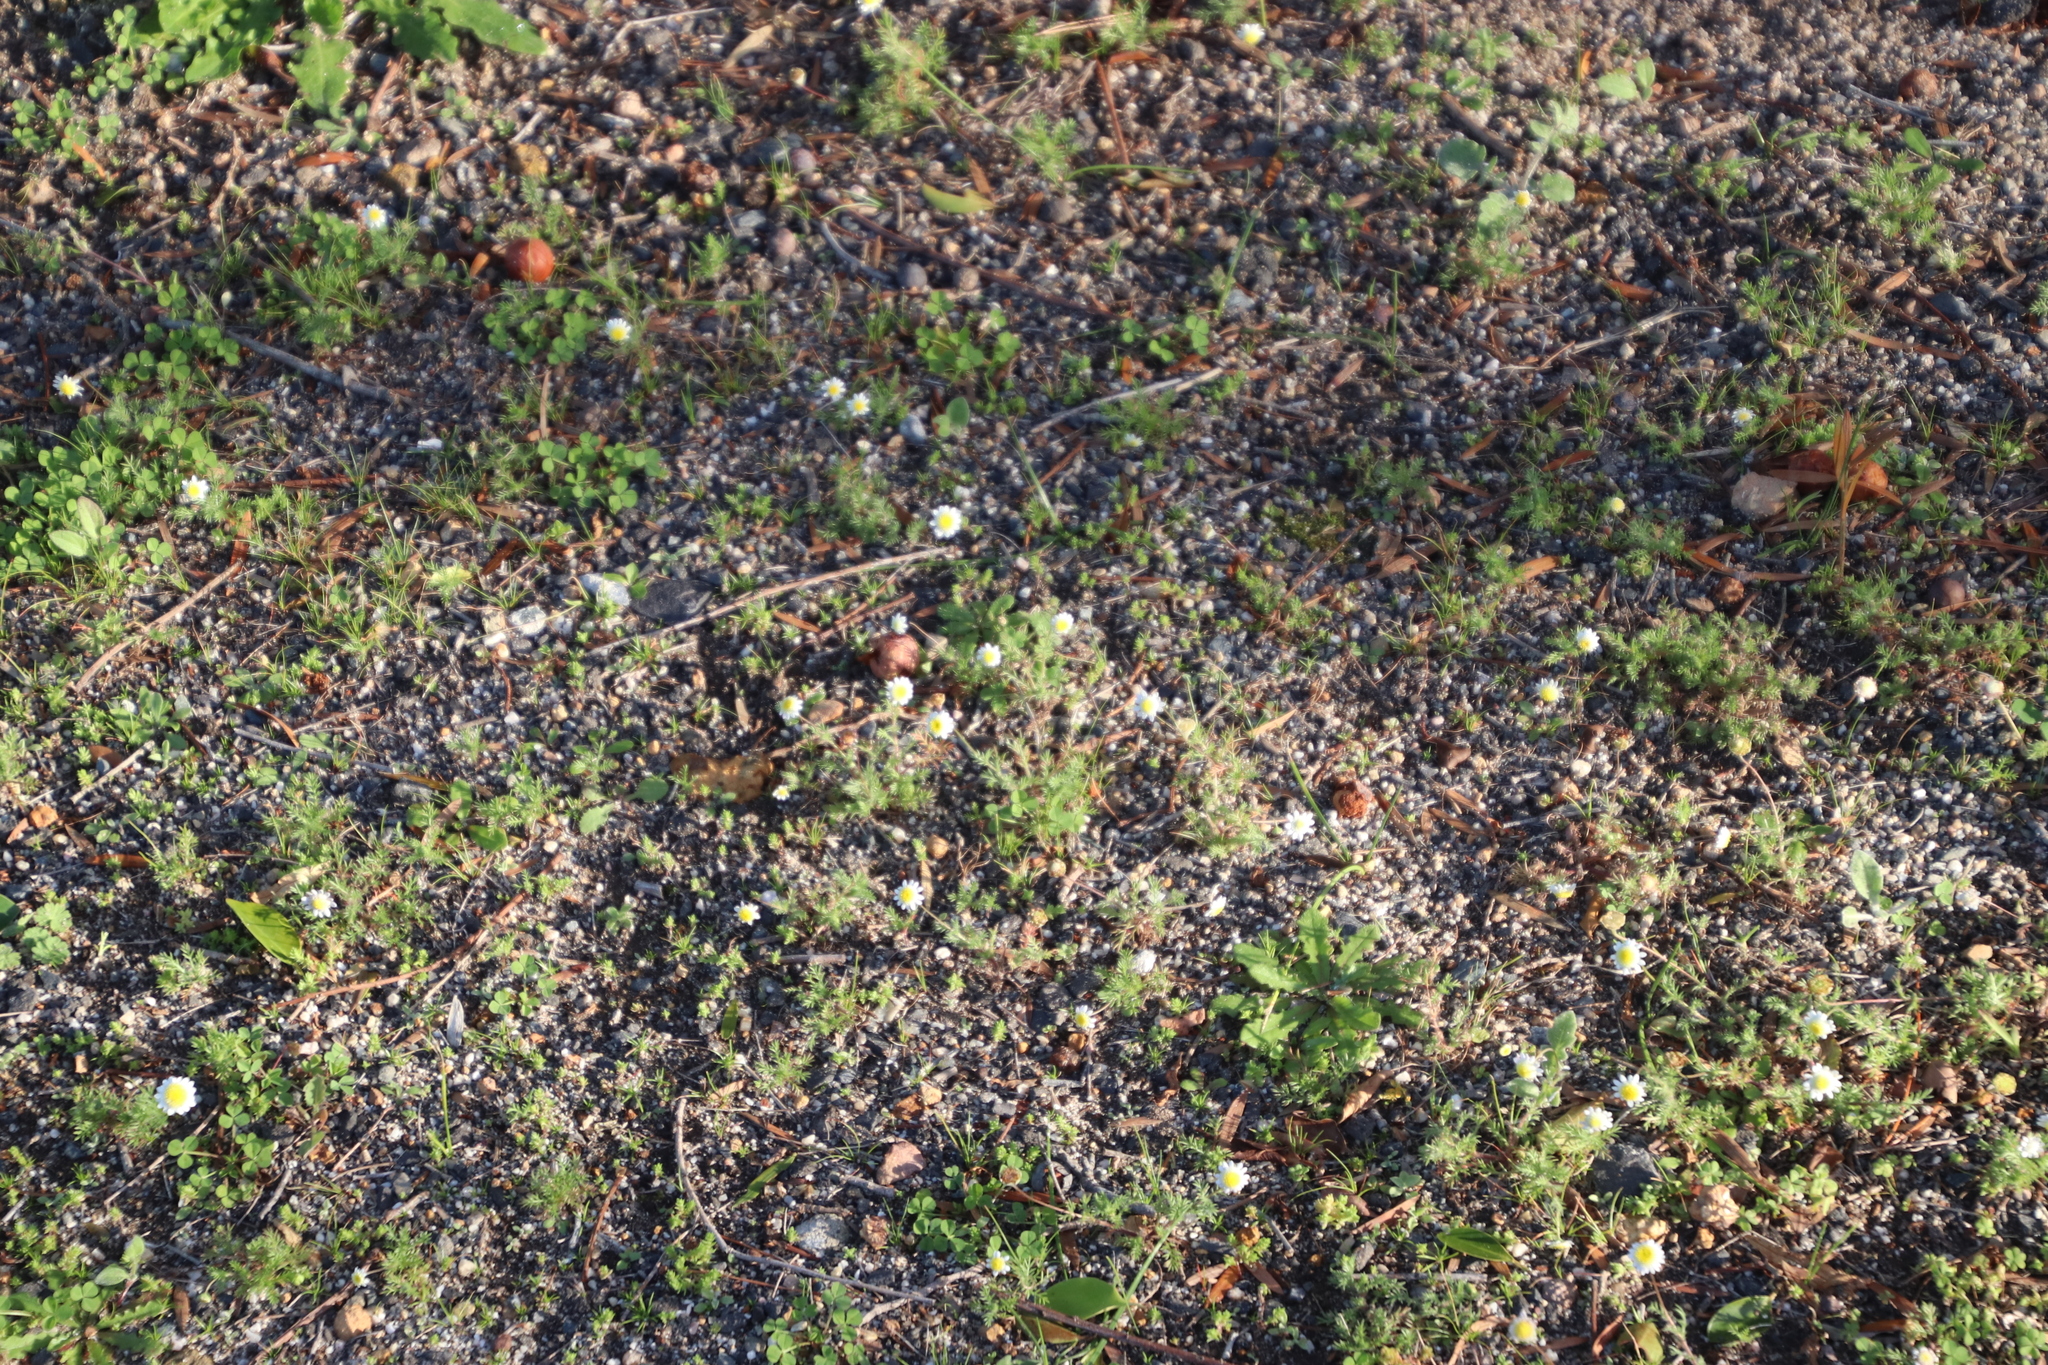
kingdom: Plantae
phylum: Tracheophyta
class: Magnoliopsida
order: Asterales
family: Asteraceae
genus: Cotula
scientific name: Cotula turbinata
